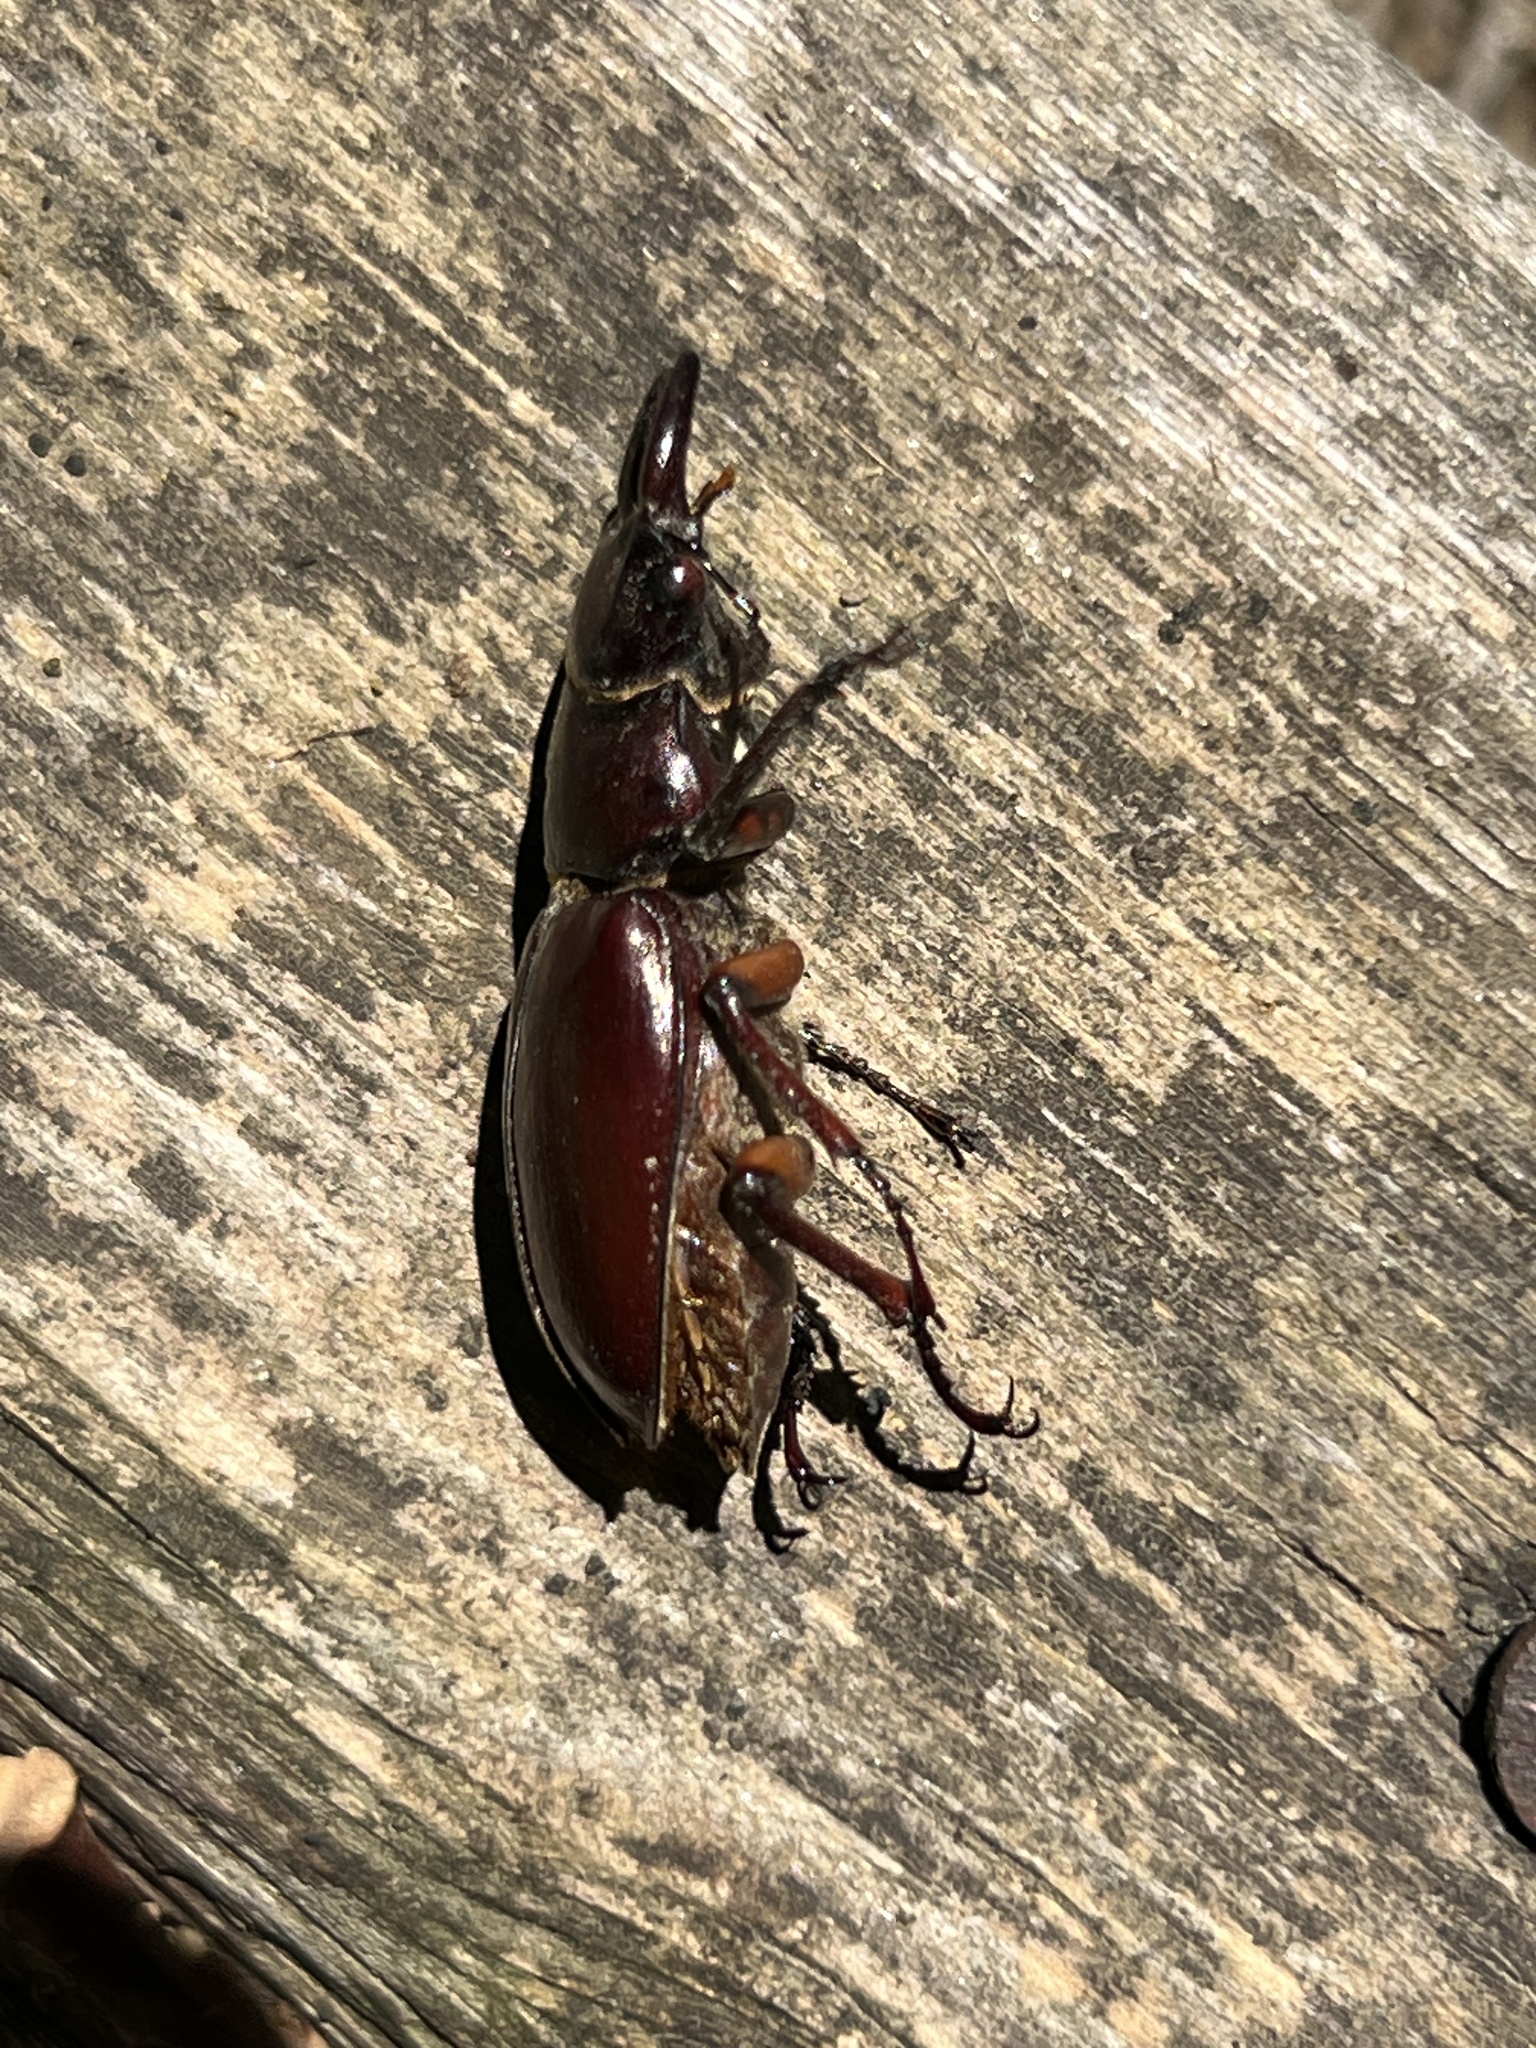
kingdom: Animalia
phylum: Arthropoda
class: Insecta
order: Coleoptera
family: Lucanidae
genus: Lucanus
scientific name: Lucanus capreolus
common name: Stag beetle
